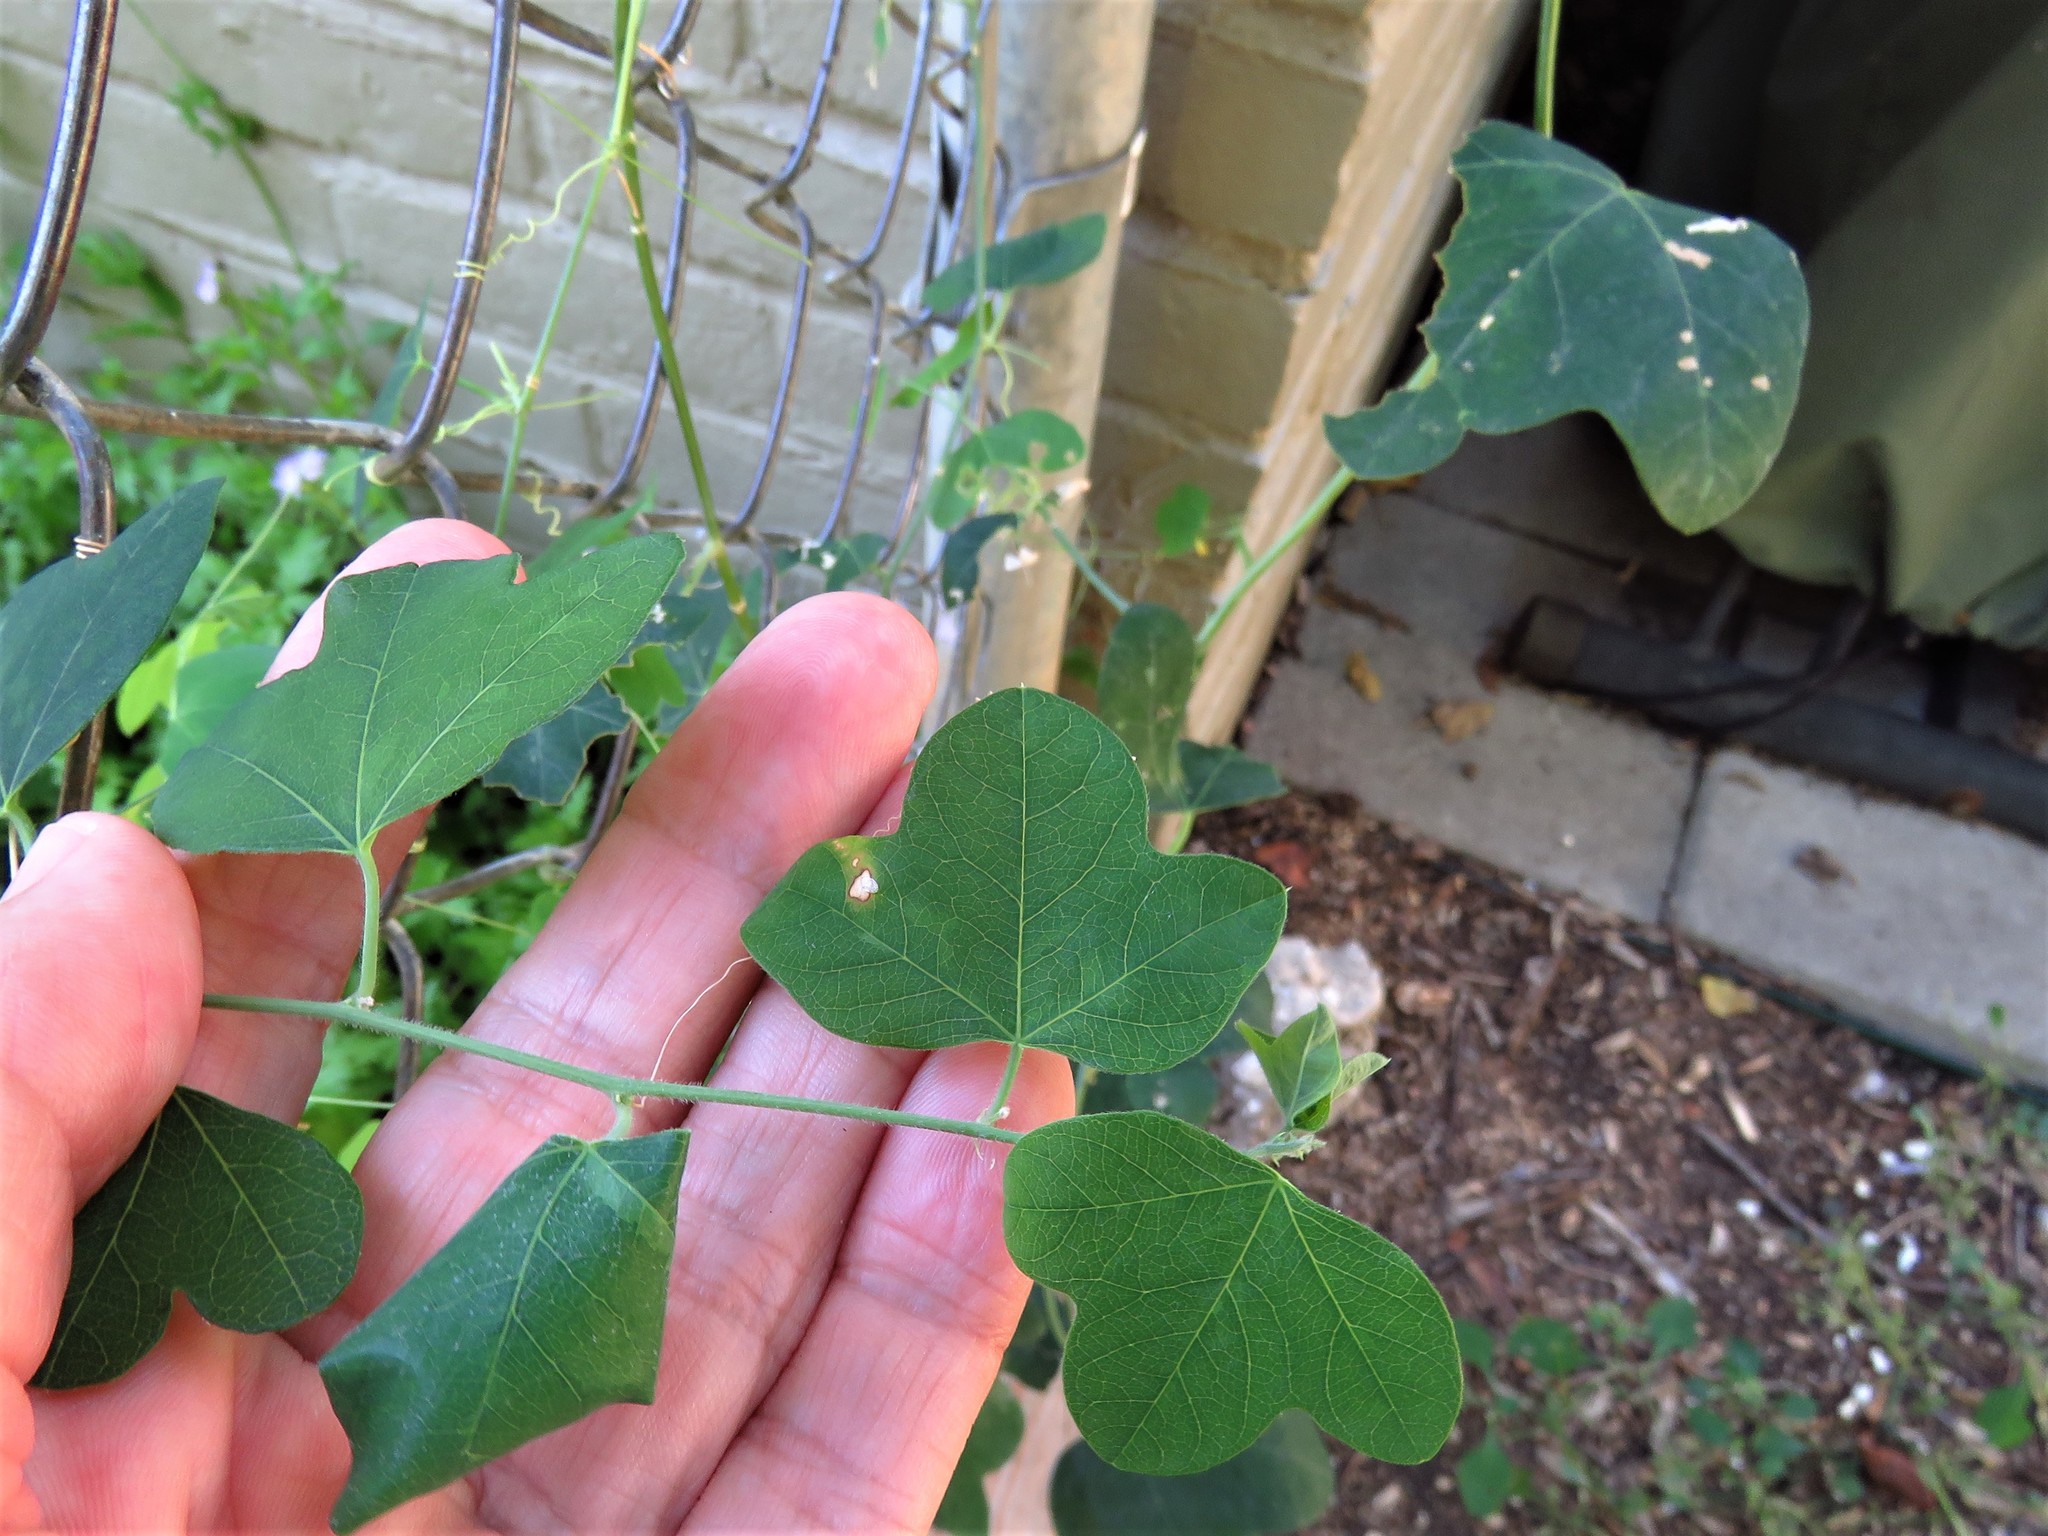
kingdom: Plantae
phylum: Tracheophyta
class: Magnoliopsida
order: Malpighiales
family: Passifloraceae
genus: Passiflora
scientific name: Passiflora lutea
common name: Yellow passionflower
